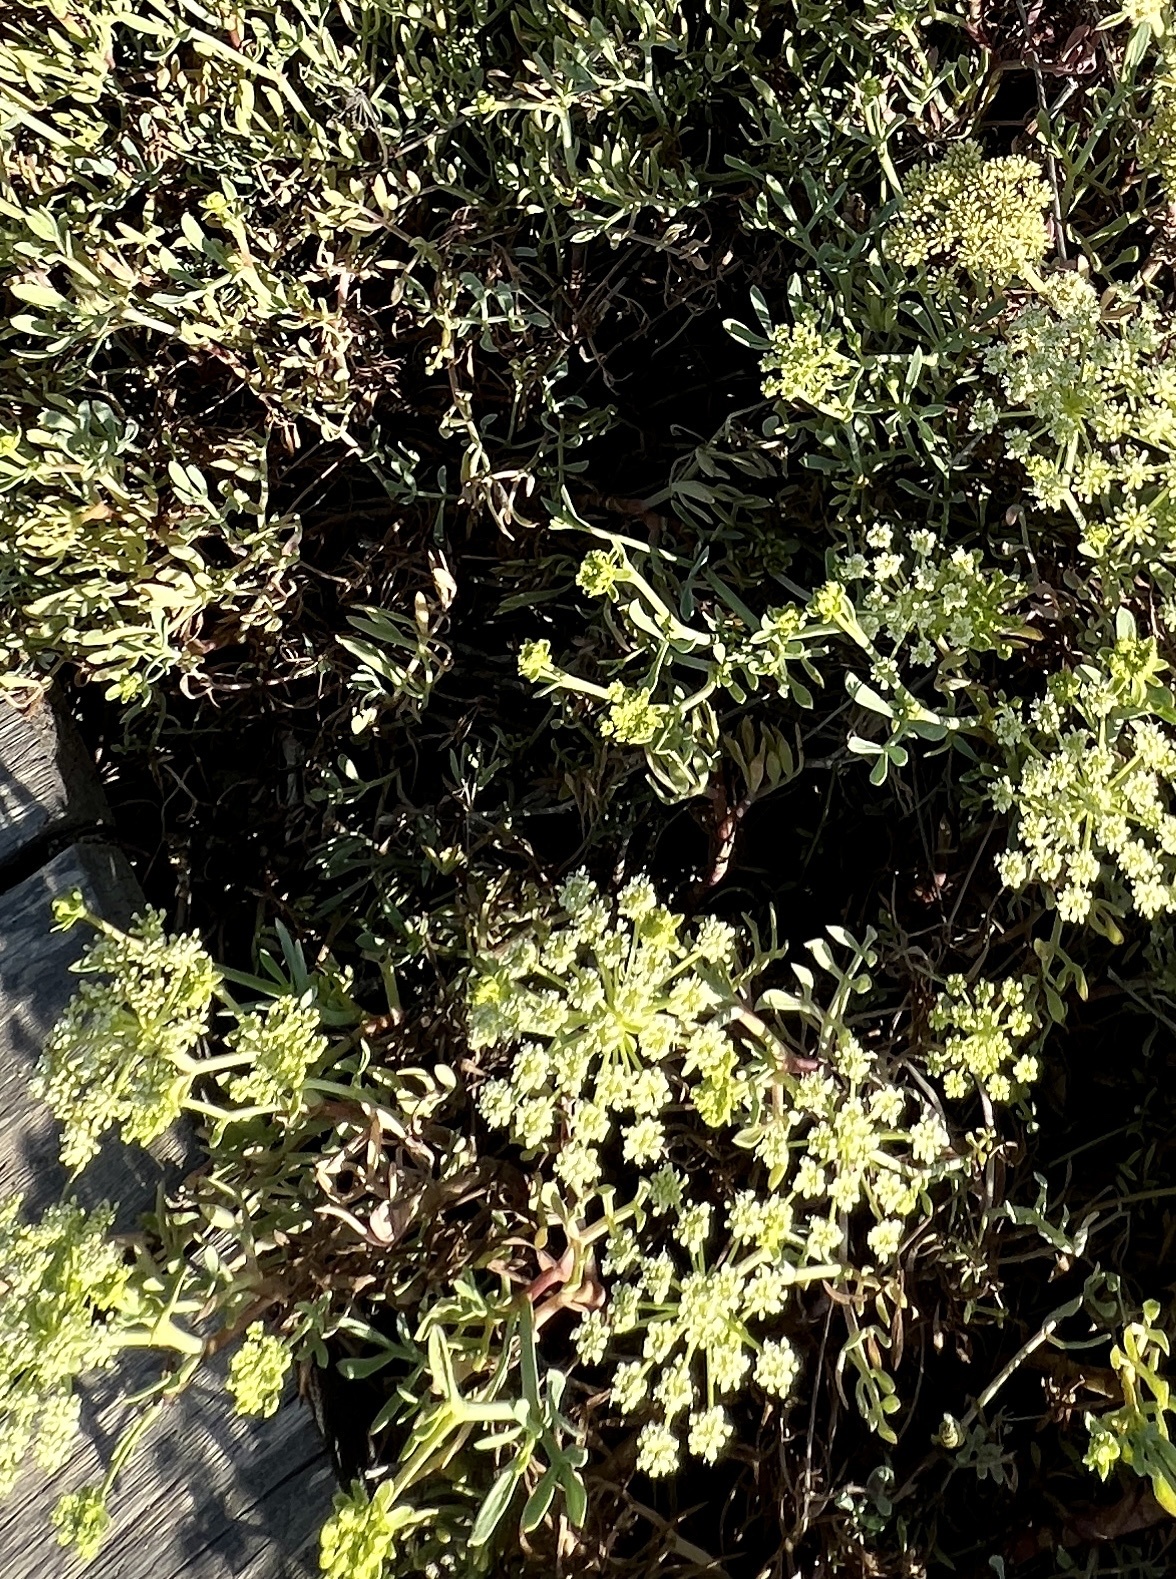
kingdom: Plantae
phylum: Tracheophyta
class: Magnoliopsida
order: Apiales
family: Apiaceae
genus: Crithmum
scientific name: Crithmum maritimum
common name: Rock samphire
